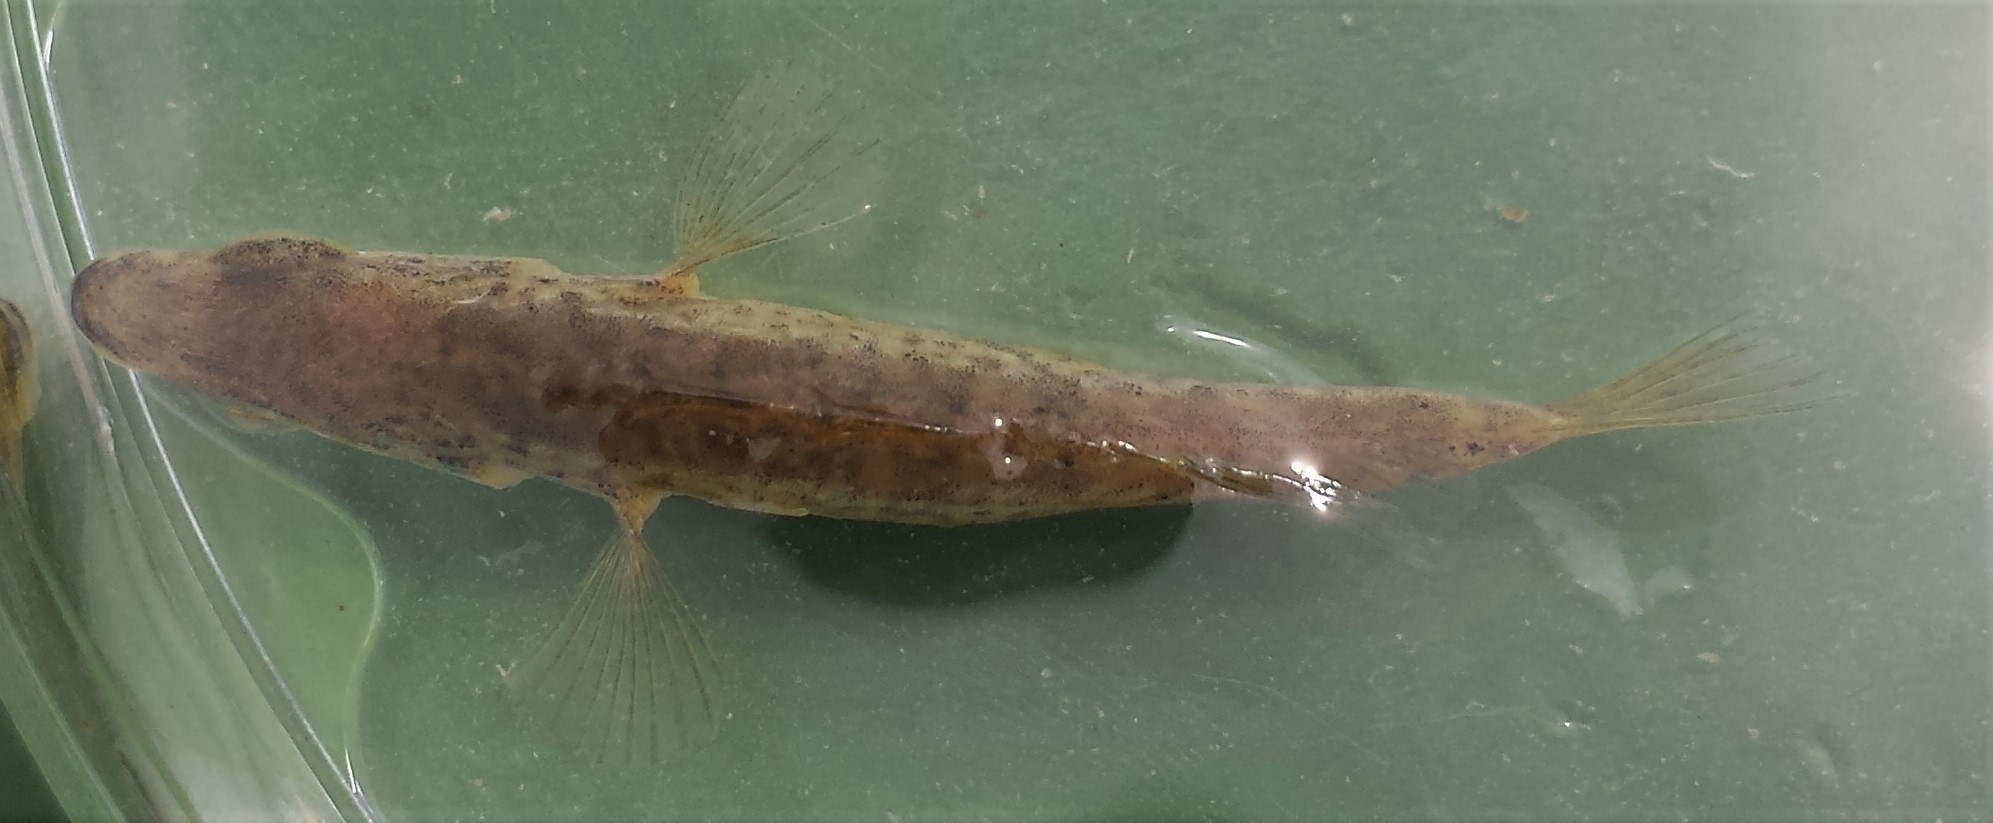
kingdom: Animalia
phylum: Chordata
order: Gasterosteiformes
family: Gasterosteidae
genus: Gasterosteus
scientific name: Gasterosteus wheatlandi
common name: Blackspotted stickleback
